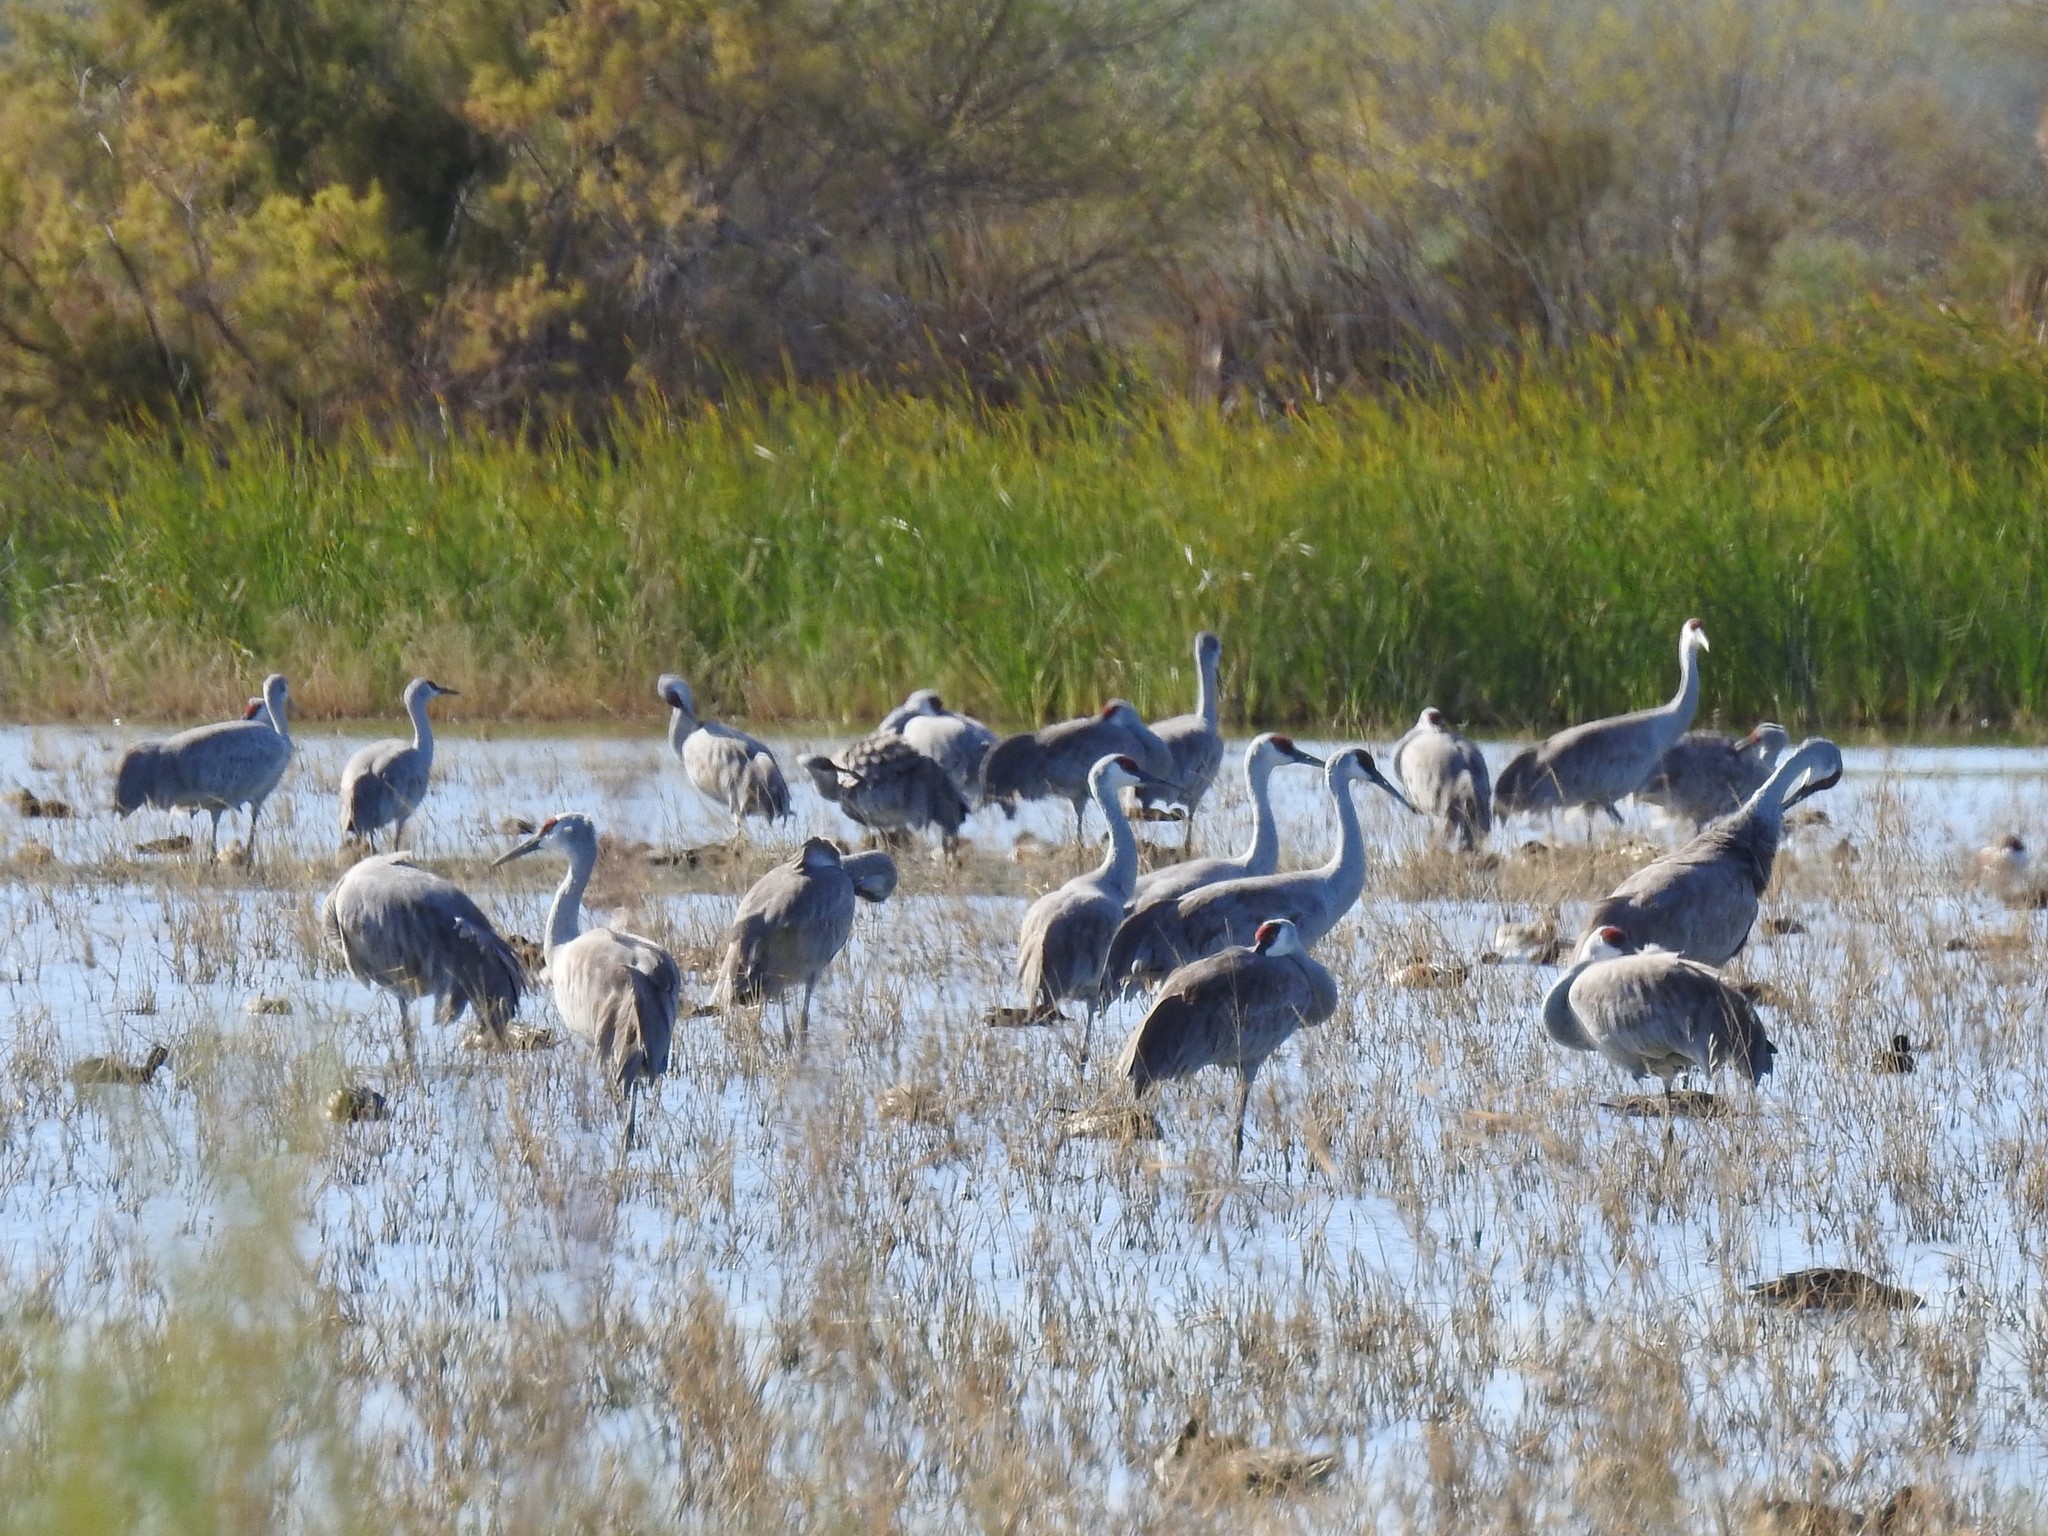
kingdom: Animalia
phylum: Chordata
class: Aves
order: Gruiformes
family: Gruidae
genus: Grus
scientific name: Grus canadensis
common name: Sandhill crane
